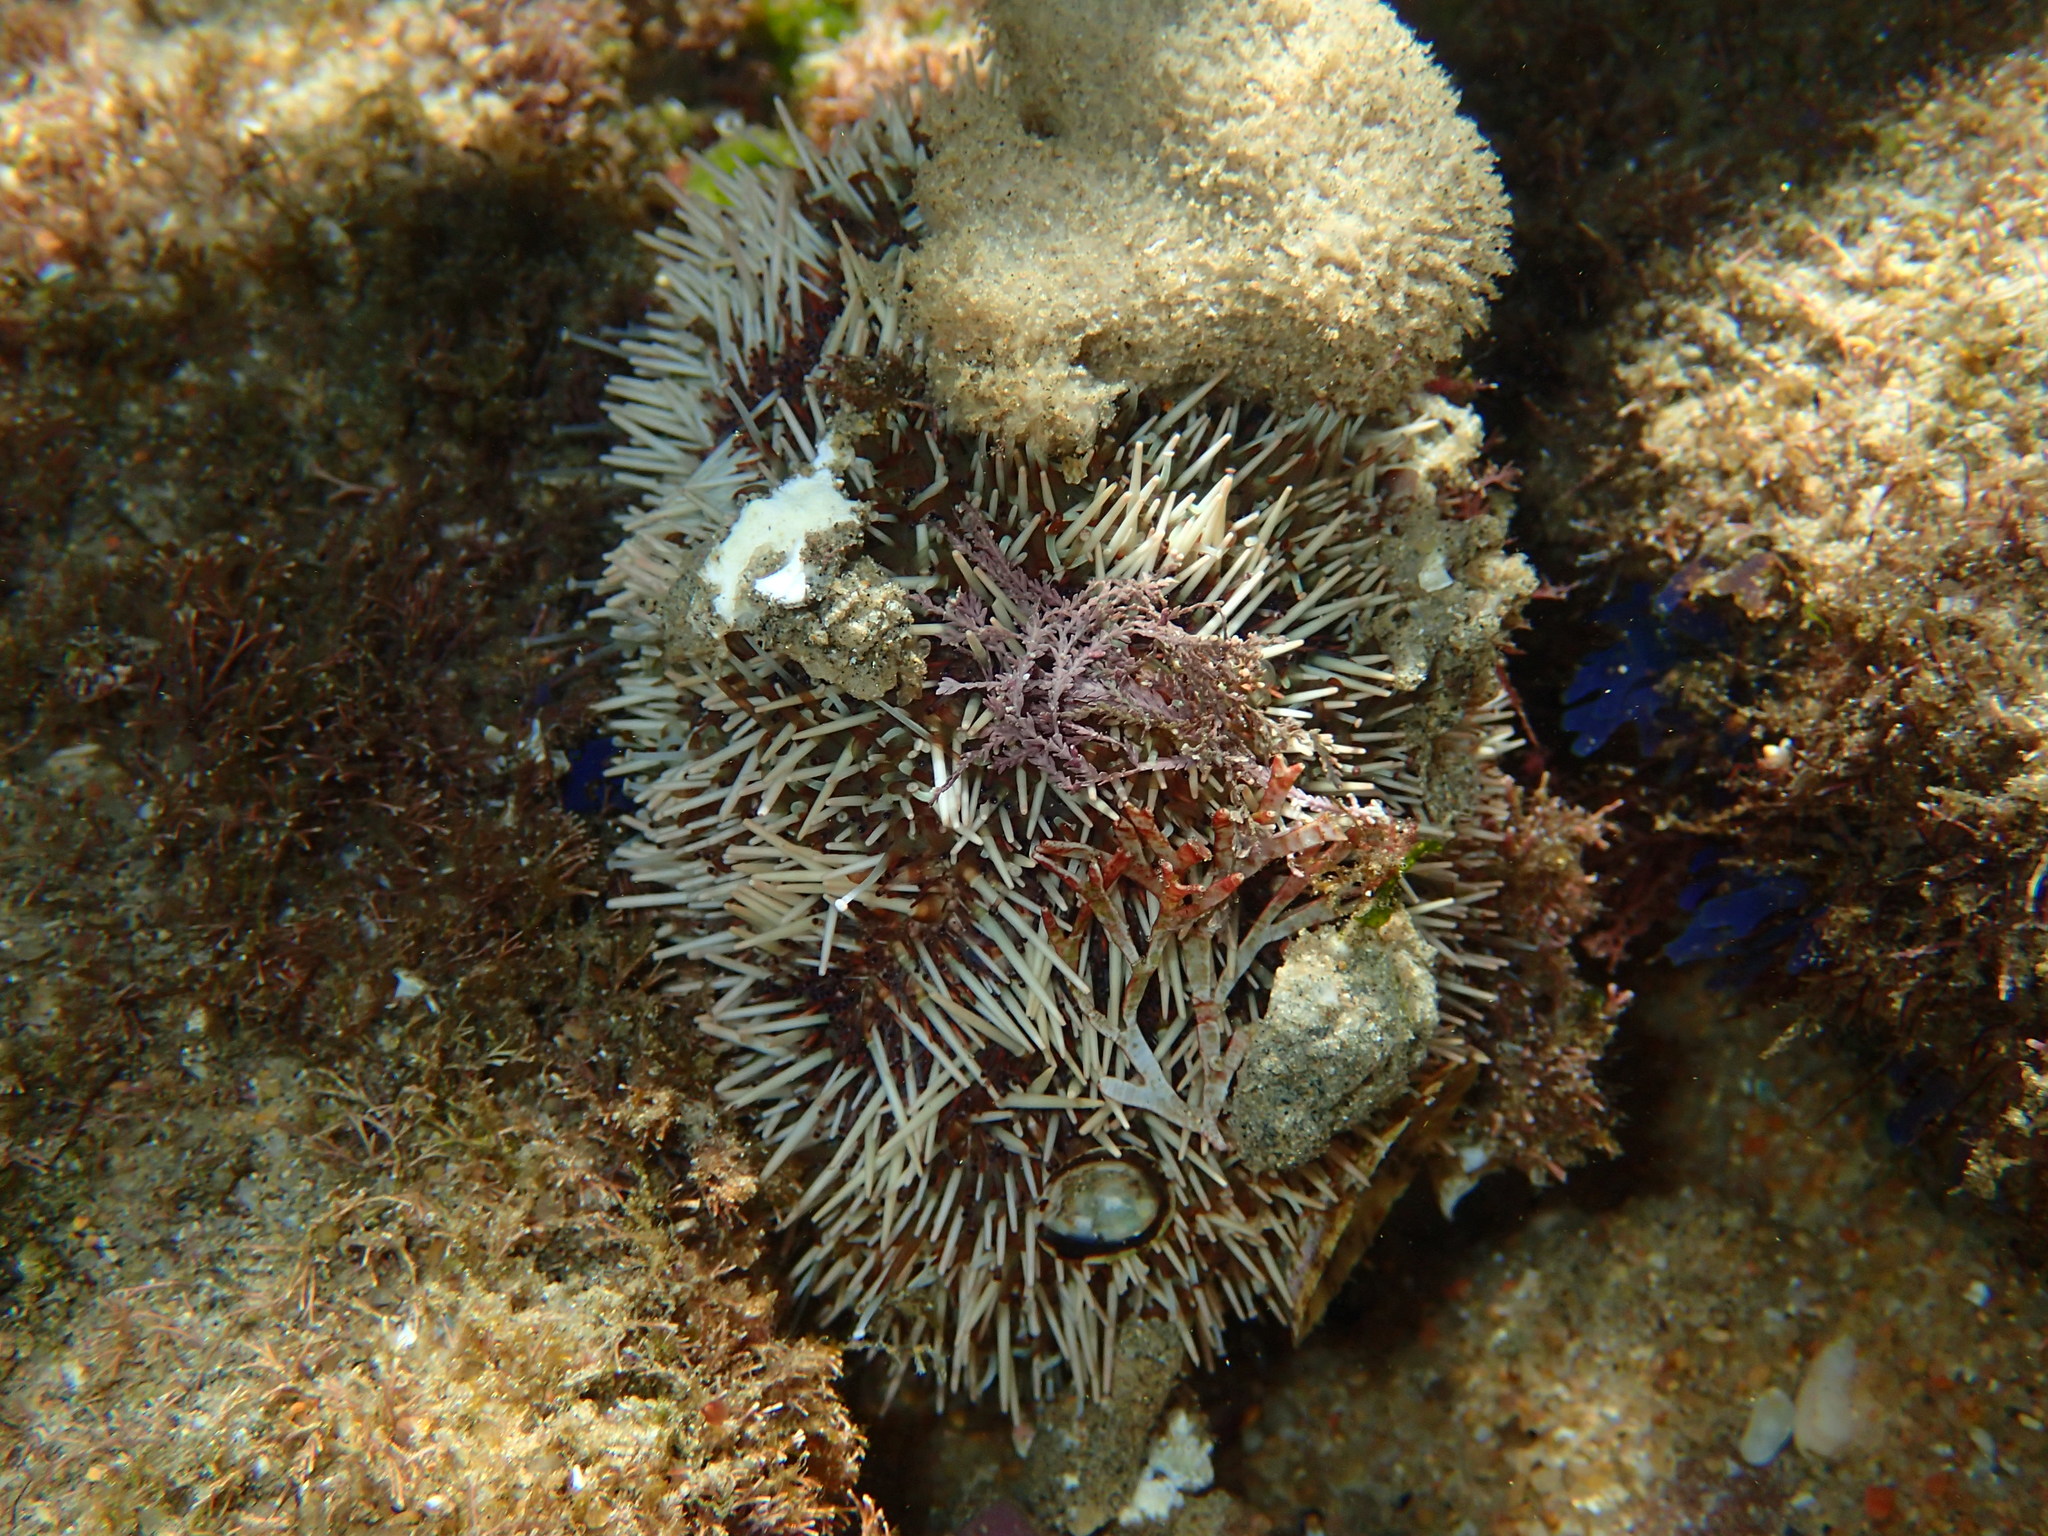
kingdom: Animalia
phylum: Echinodermata
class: Echinoidea
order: Camarodonta
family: Toxopneustidae
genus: Tripneustes
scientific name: Tripneustes gratilla
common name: Bischofsmützenseeigel
